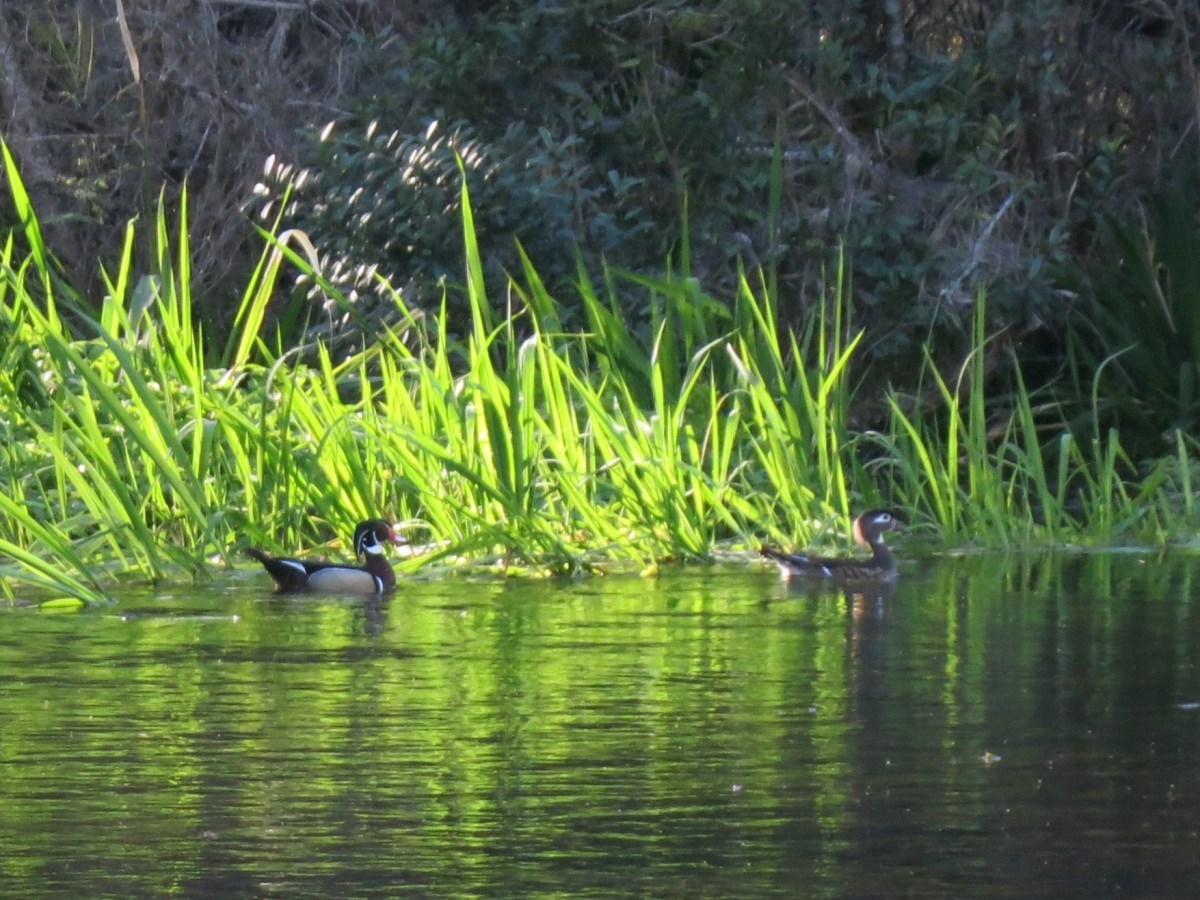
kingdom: Animalia
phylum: Chordata
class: Aves
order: Anseriformes
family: Anatidae
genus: Aix
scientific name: Aix sponsa
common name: Wood duck
